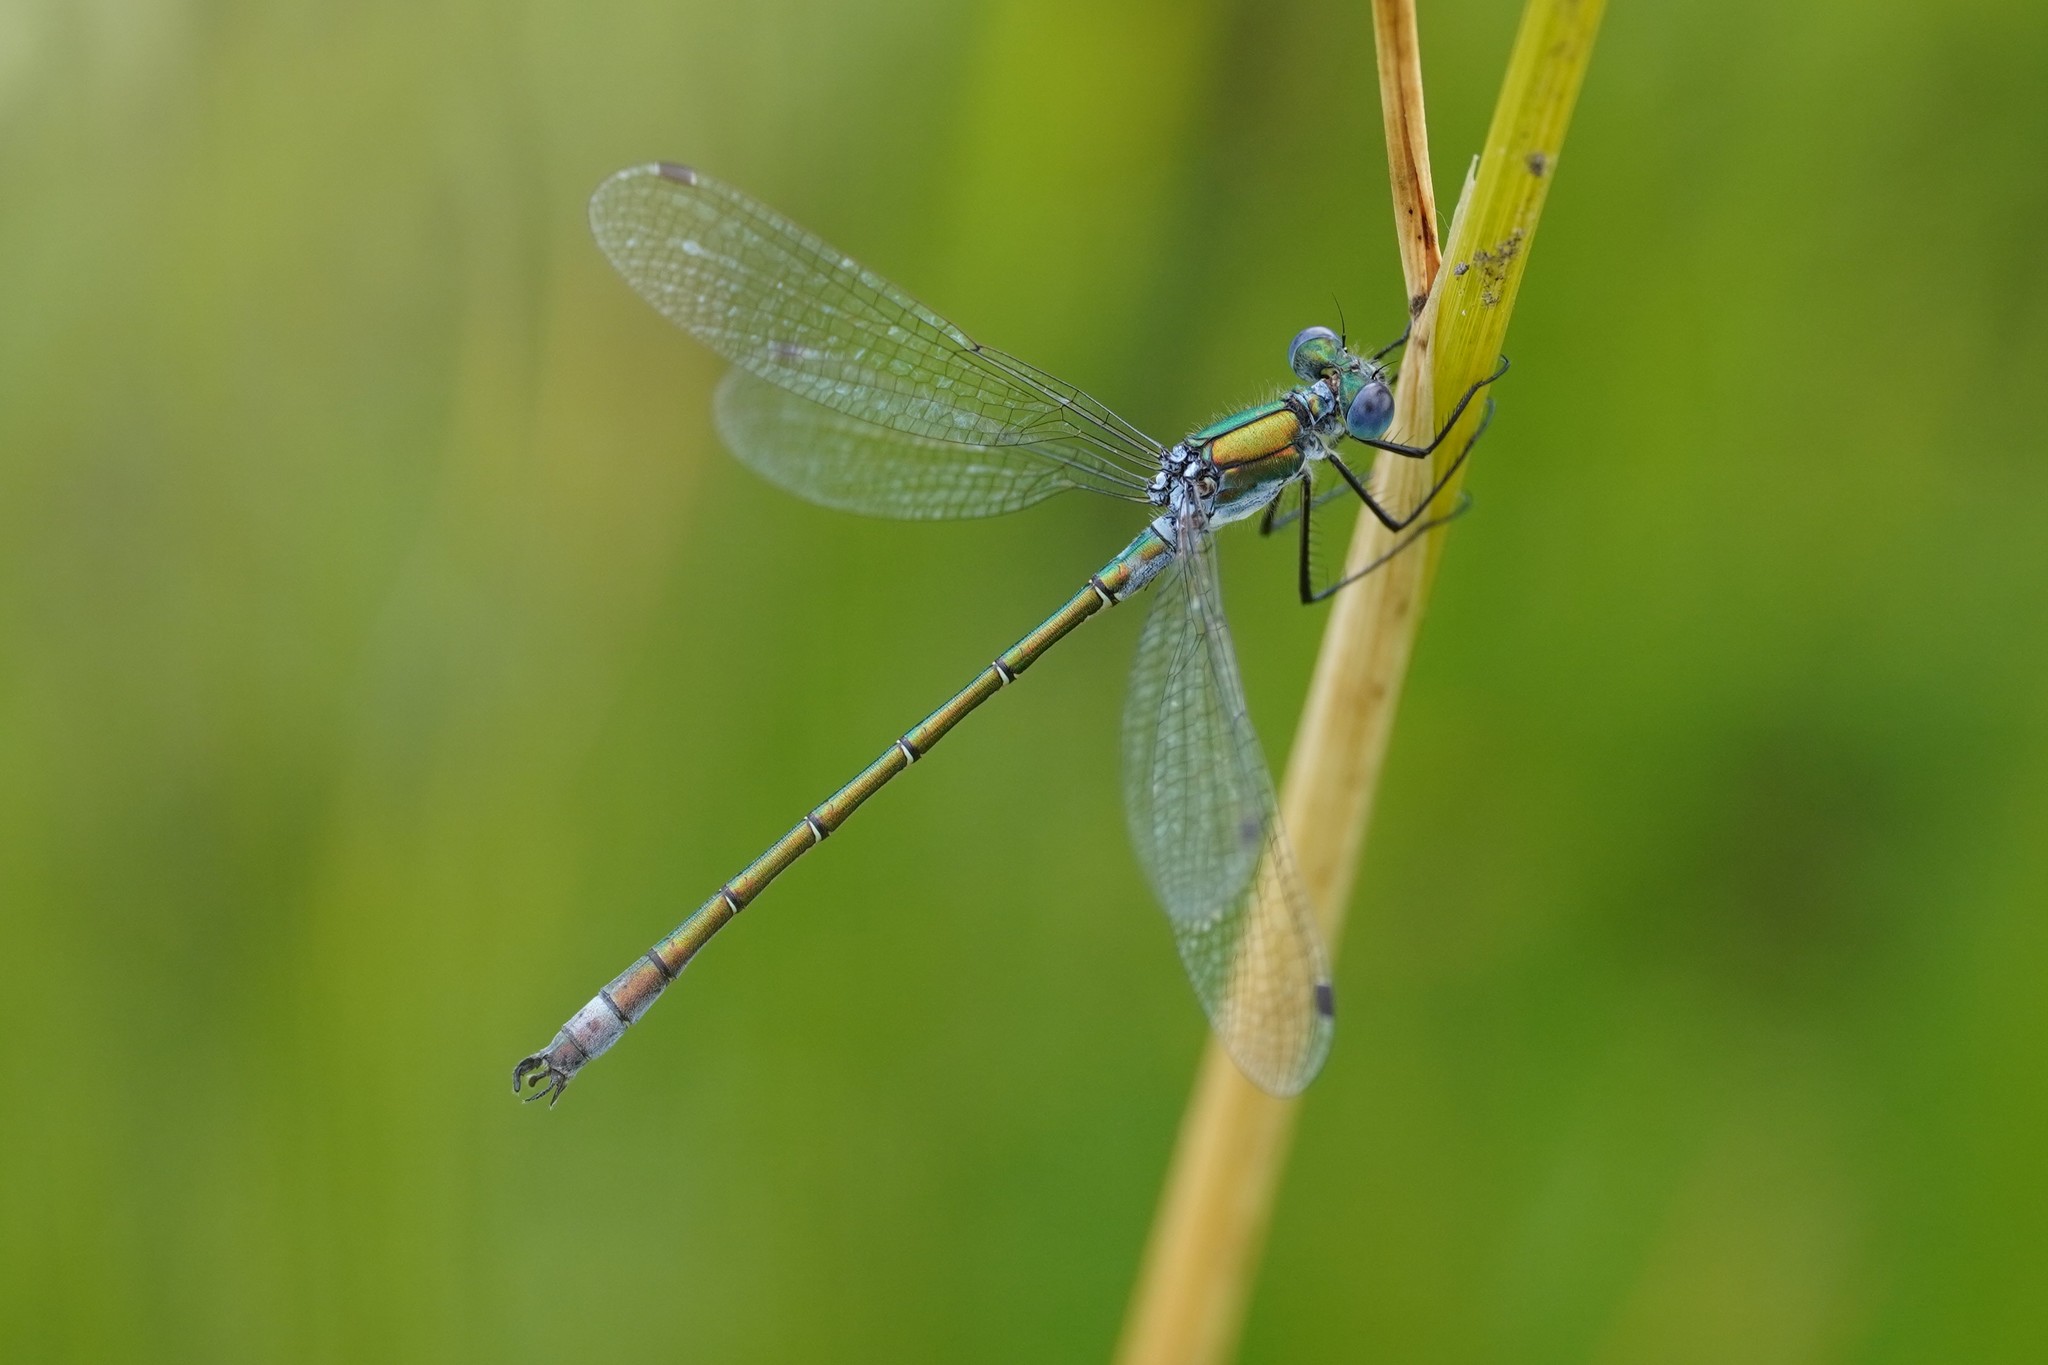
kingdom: Animalia
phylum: Arthropoda
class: Insecta
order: Odonata
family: Lestidae
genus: Lestes
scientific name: Lestes dryas
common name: Scarce emerald damselfly
